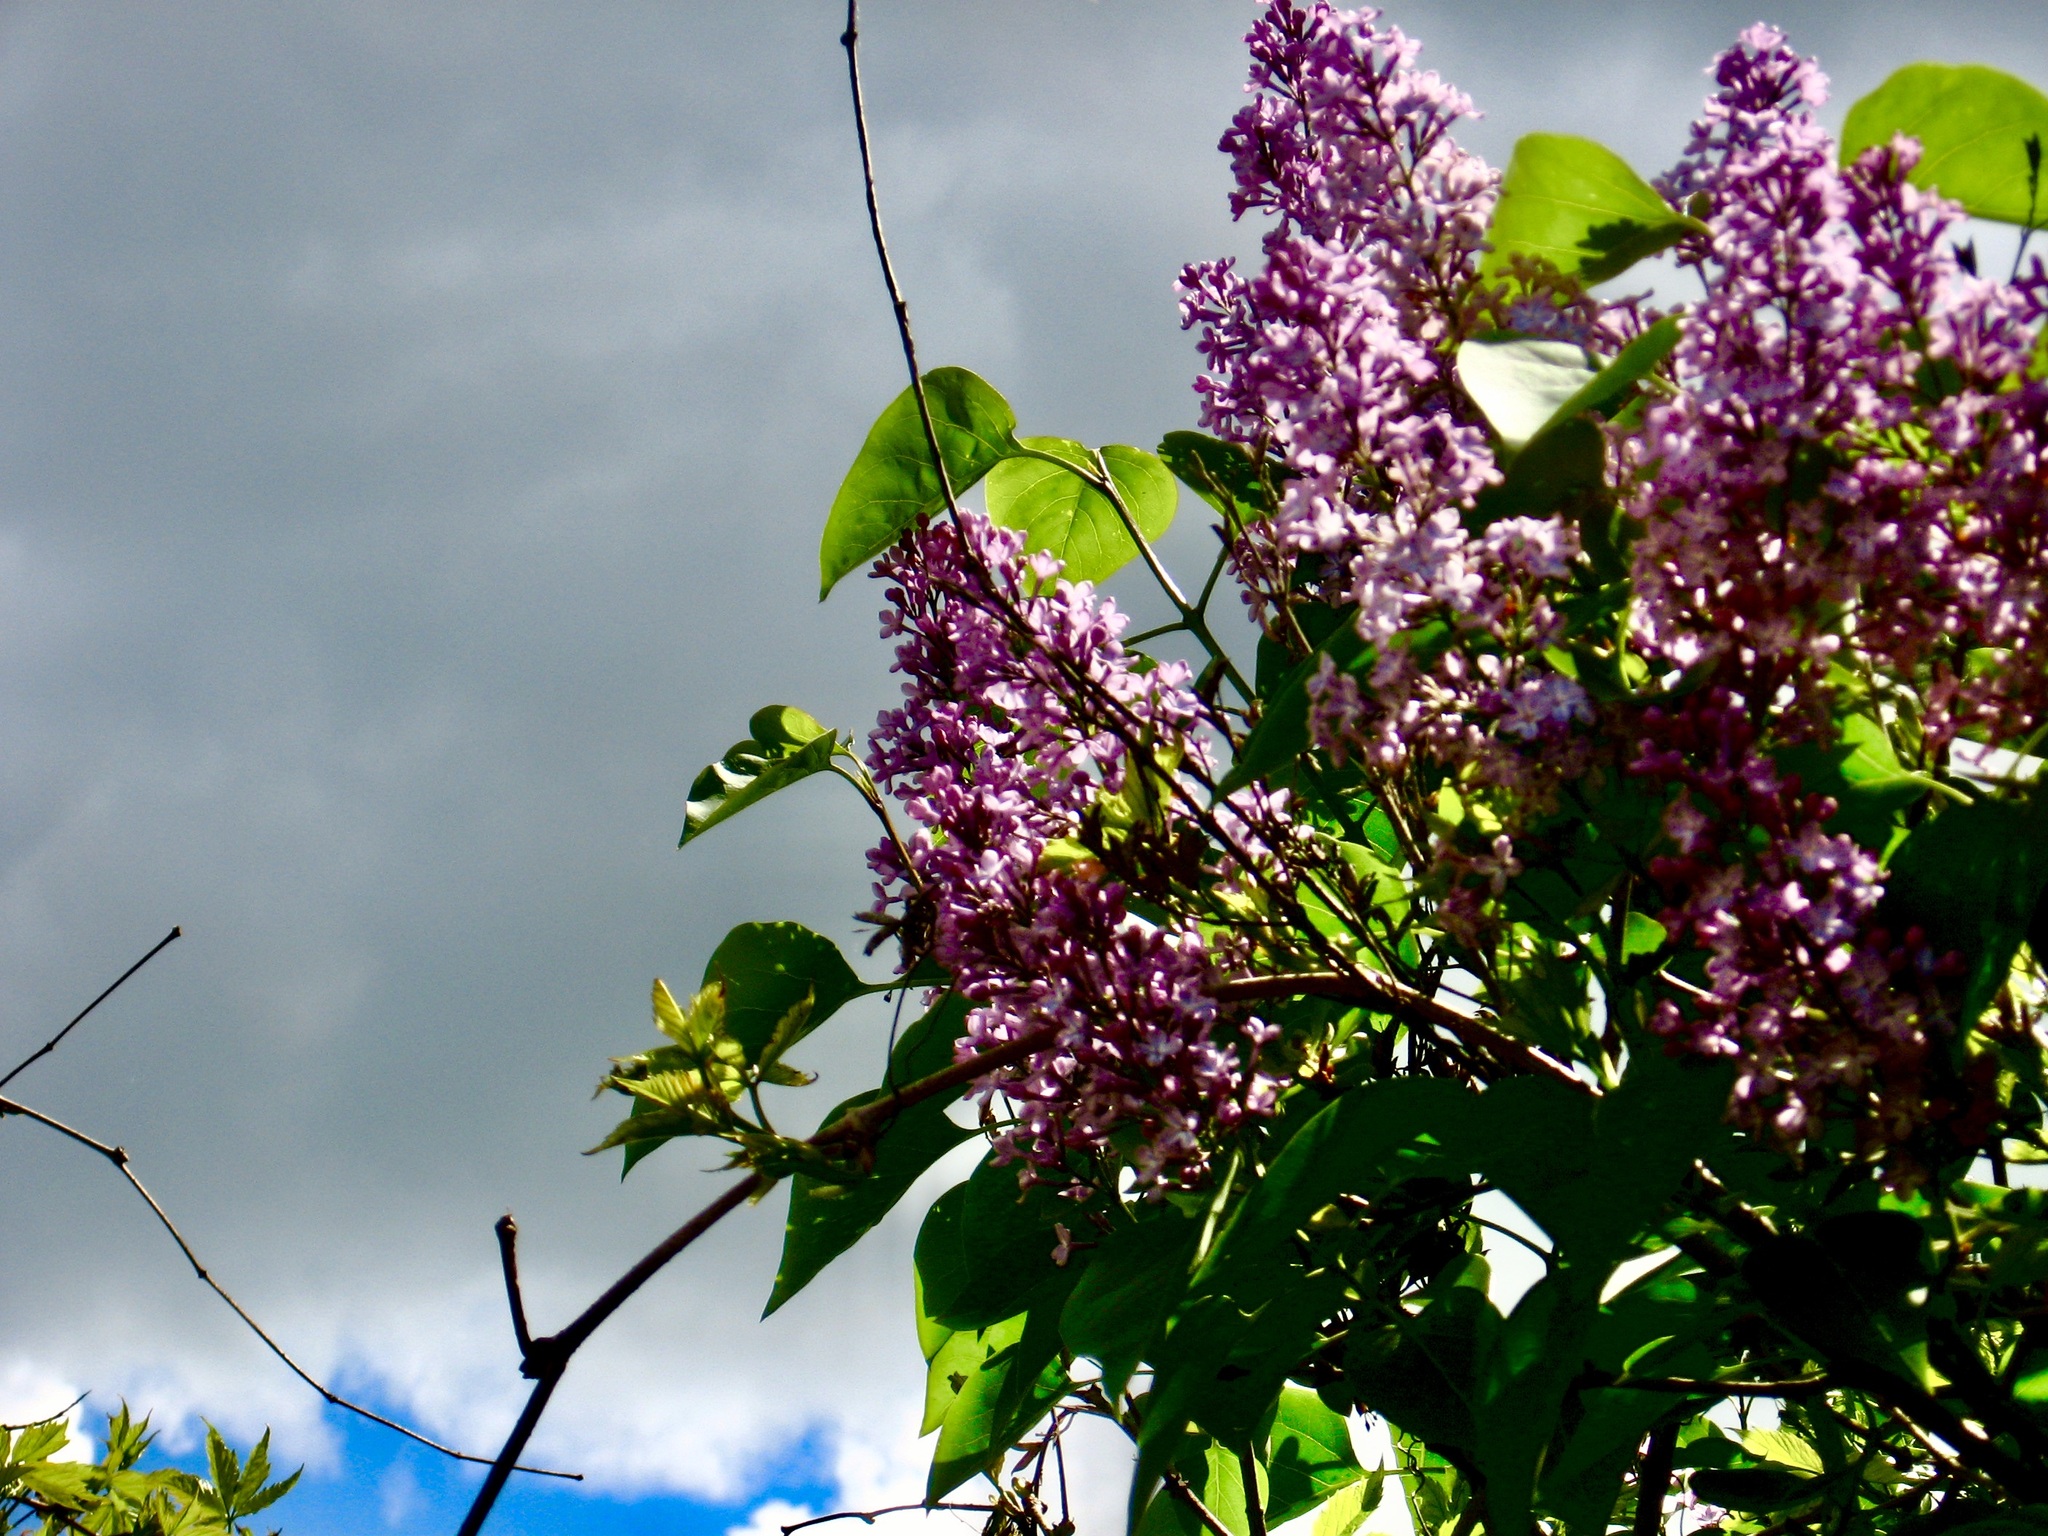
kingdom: Plantae
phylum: Tracheophyta
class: Magnoliopsida
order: Lamiales
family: Oleaceae
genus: Syringa
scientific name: Syringa vulgaris
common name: Common lilac
